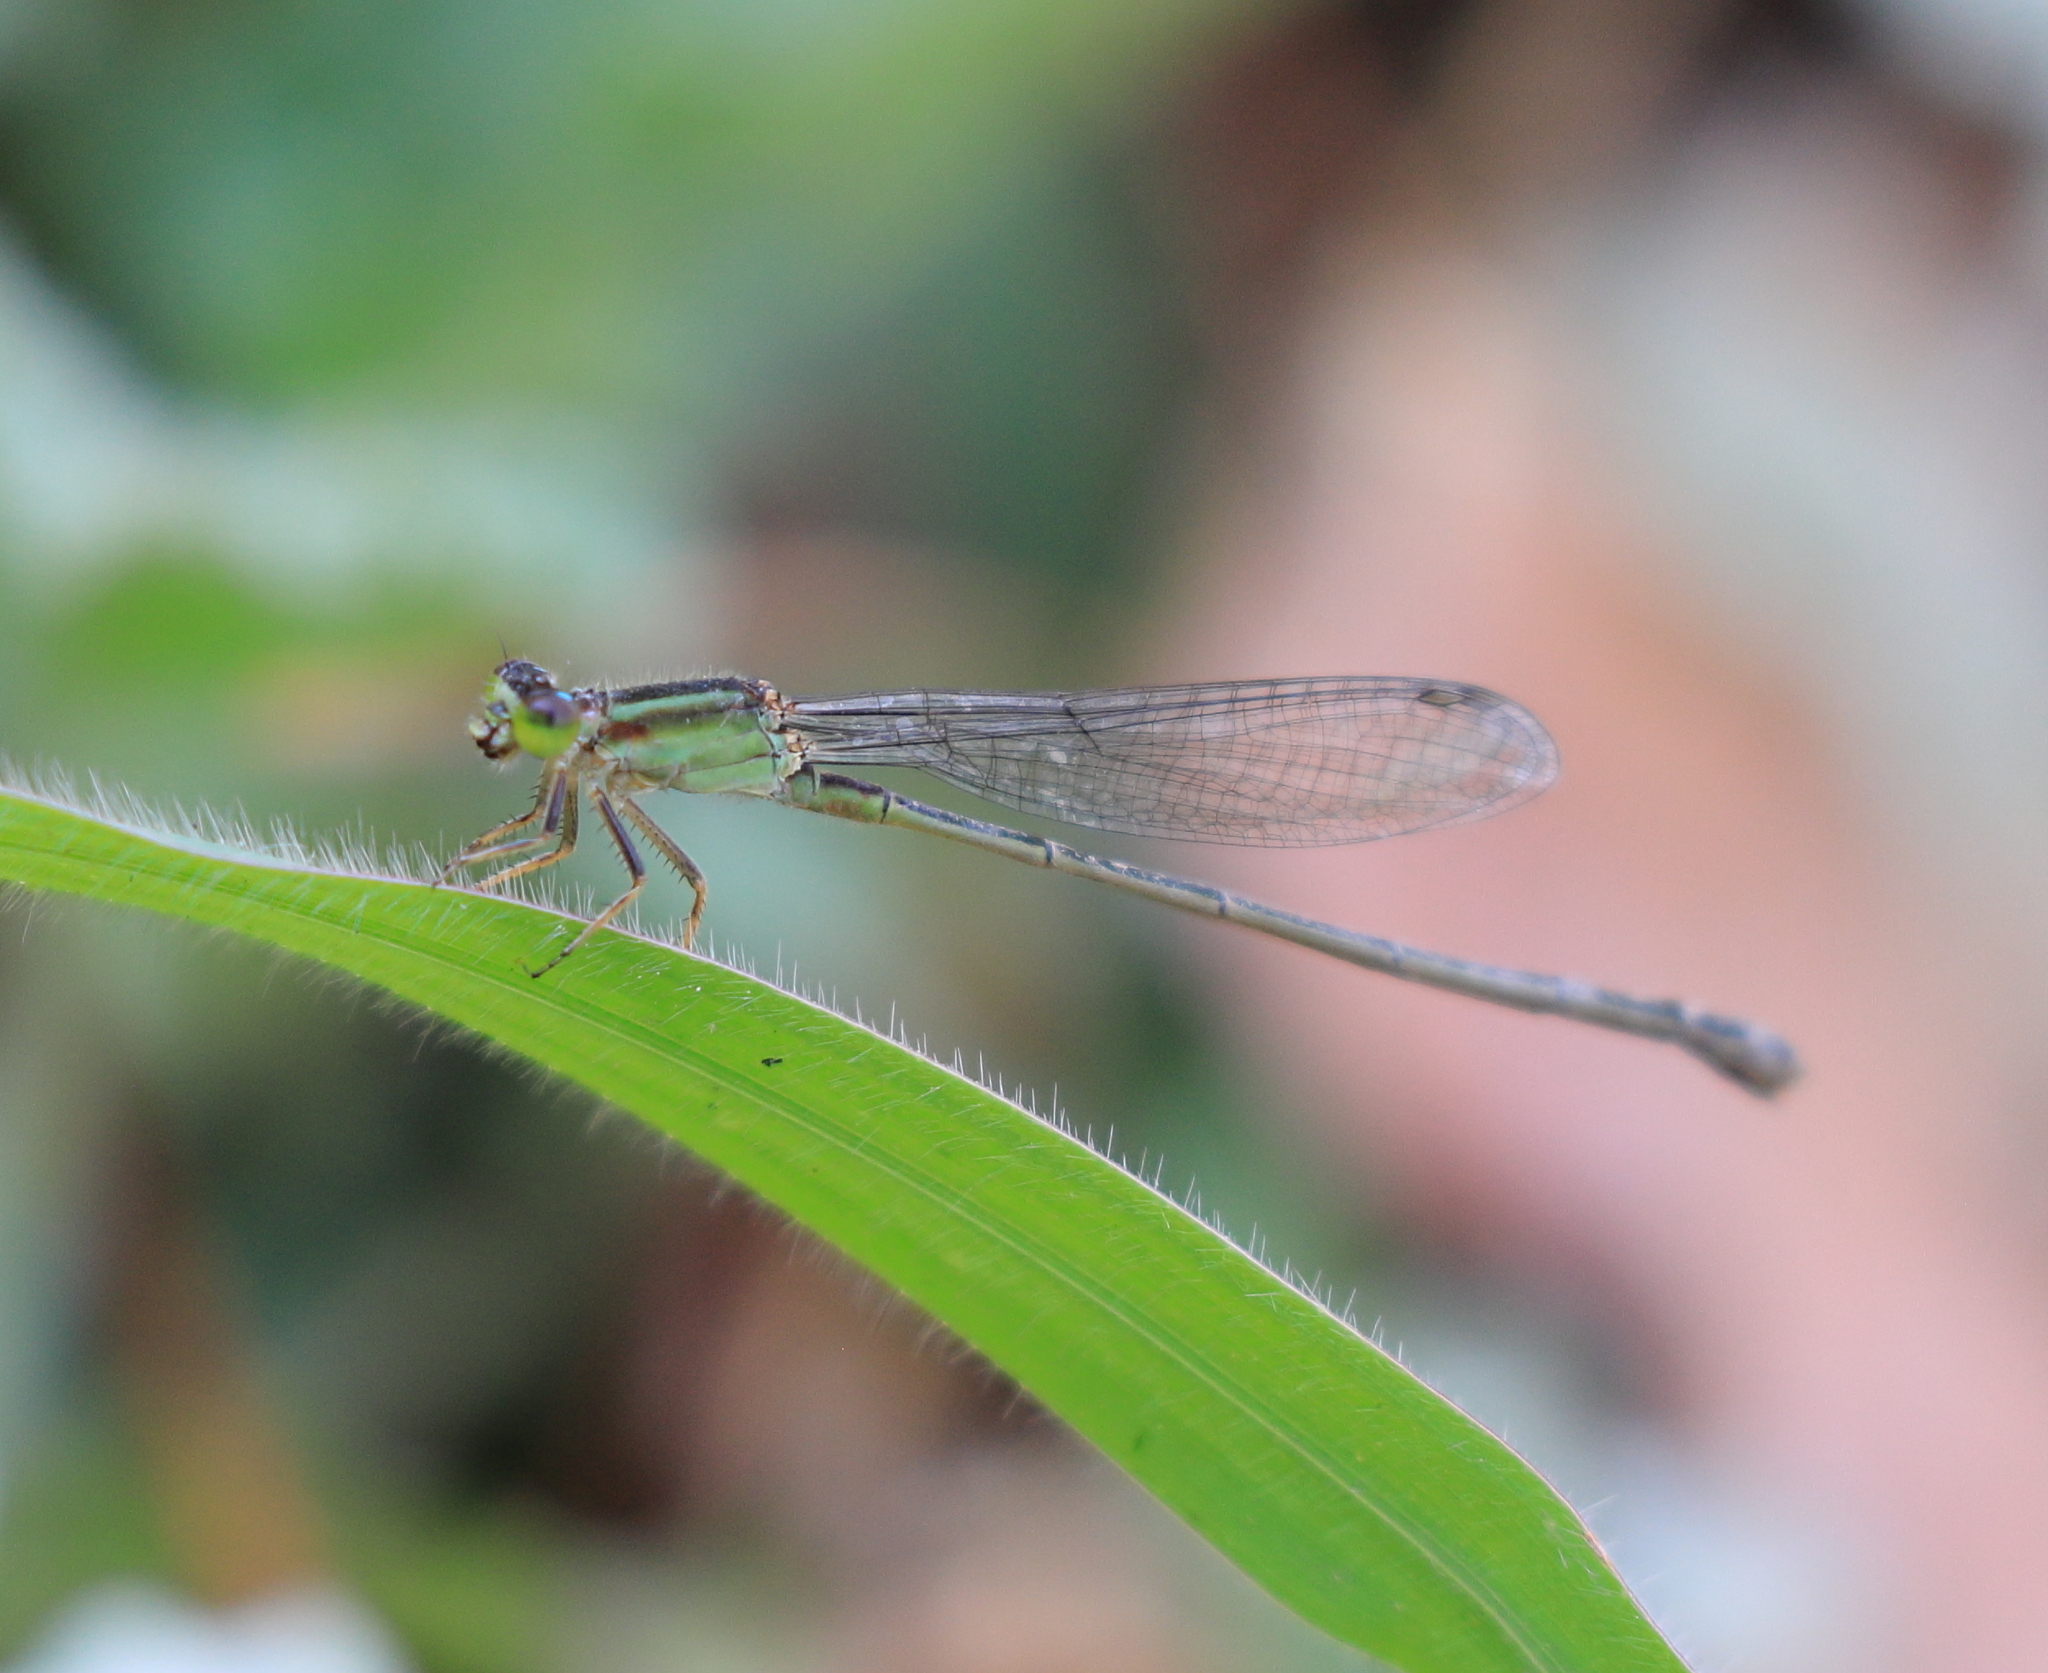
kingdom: Animalia
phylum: Arthropoda
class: Insecta
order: Odonata
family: Coenagrionidae
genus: Ischnura
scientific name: Ischnura senegalensis
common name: Tropical bluetail
